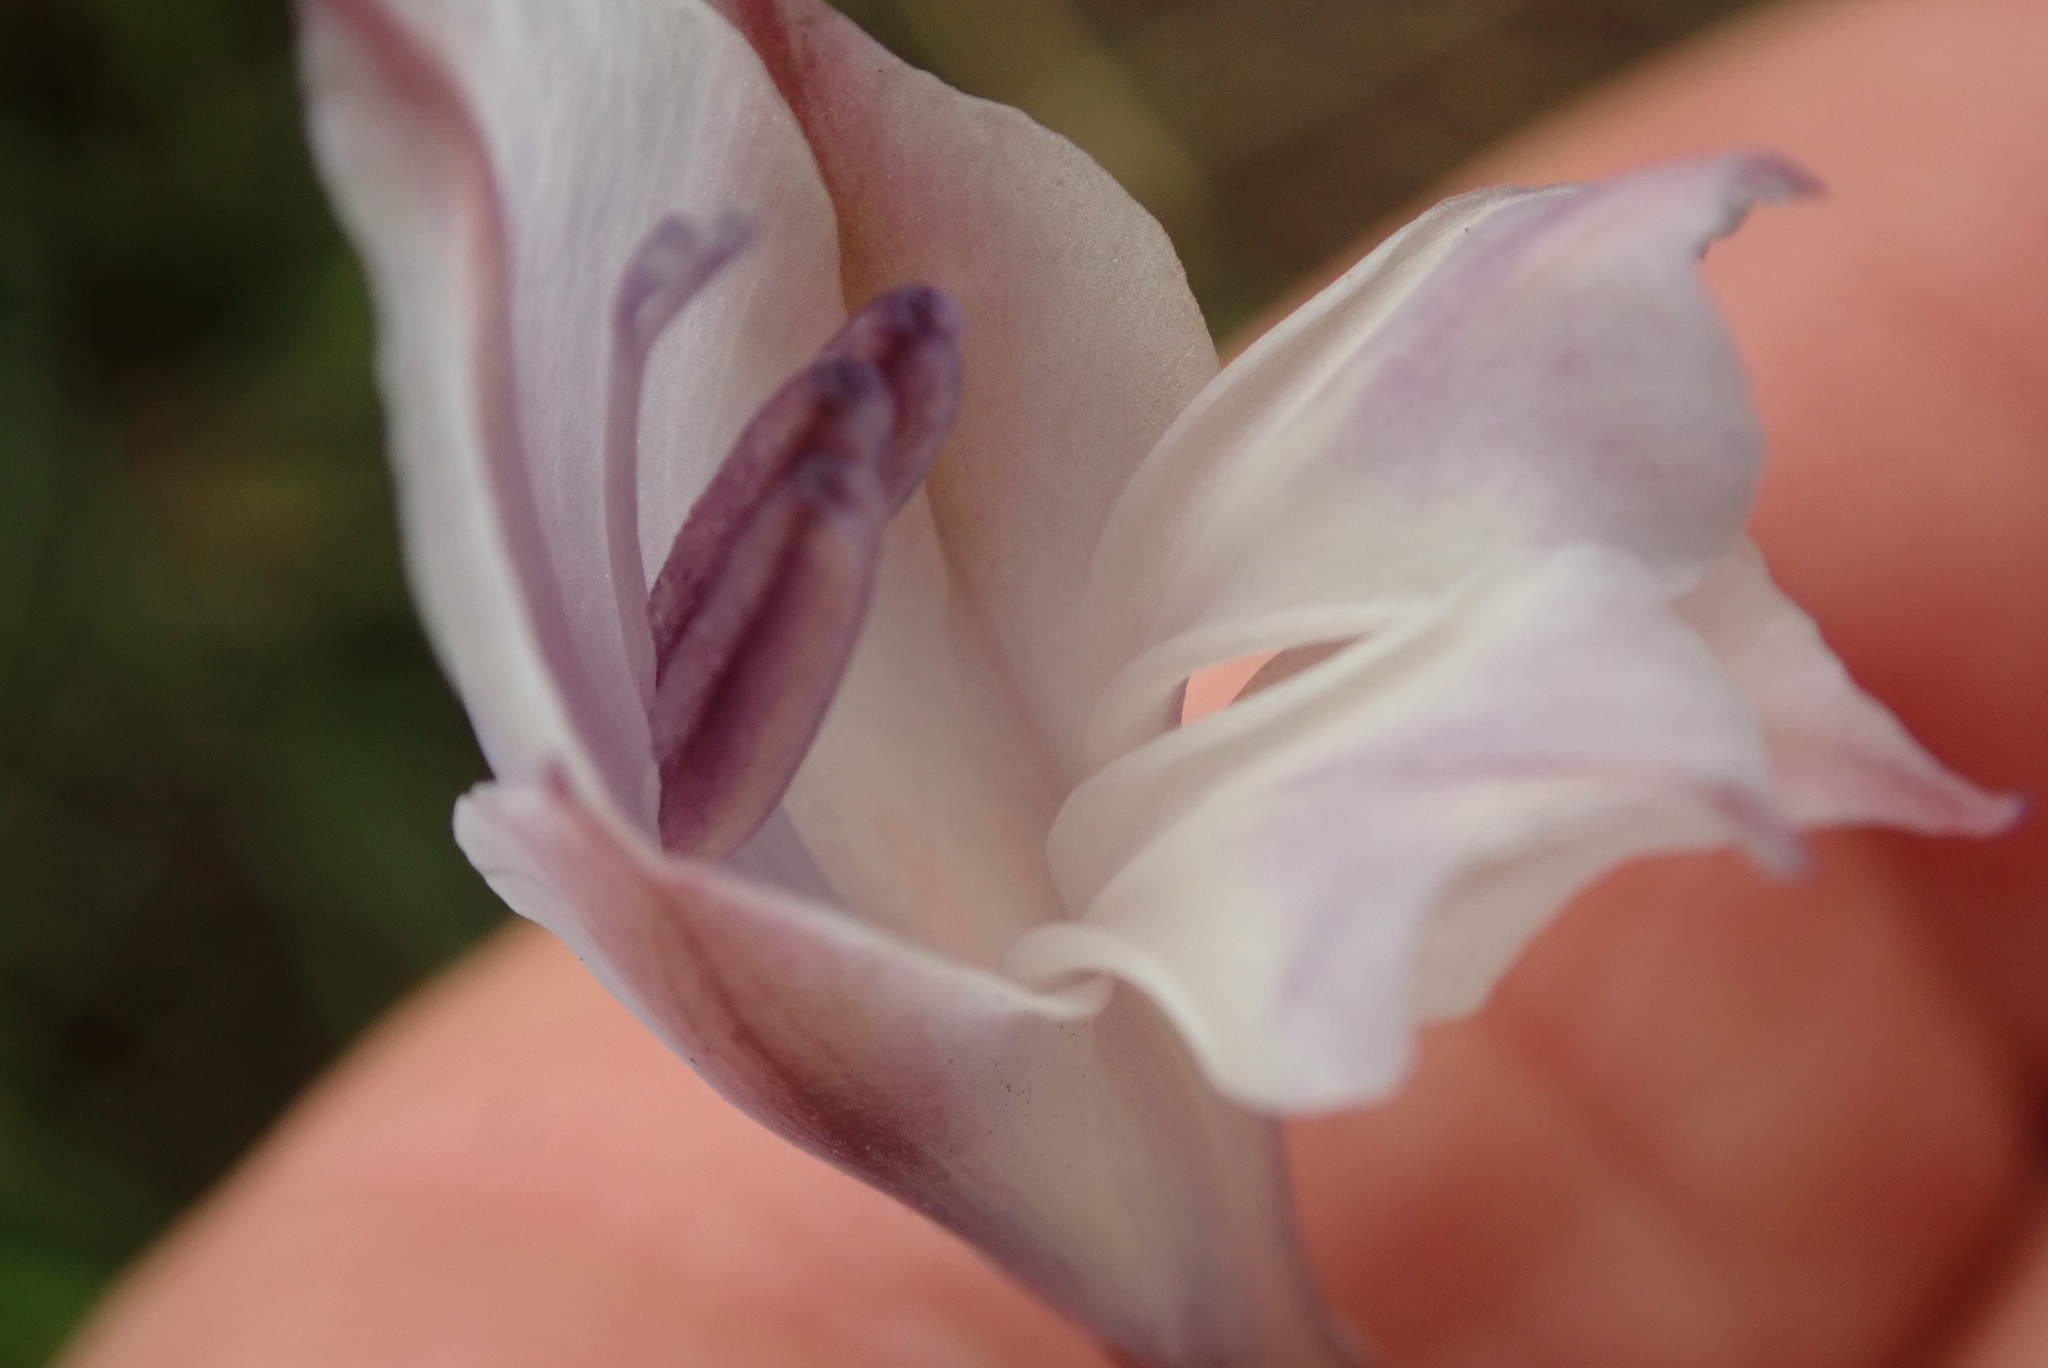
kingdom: Plantae
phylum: Tracheophyta
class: Liliopsida
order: Asparagales
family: Iridaceae
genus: Gladiolus
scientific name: Gladiolus densiflorus
